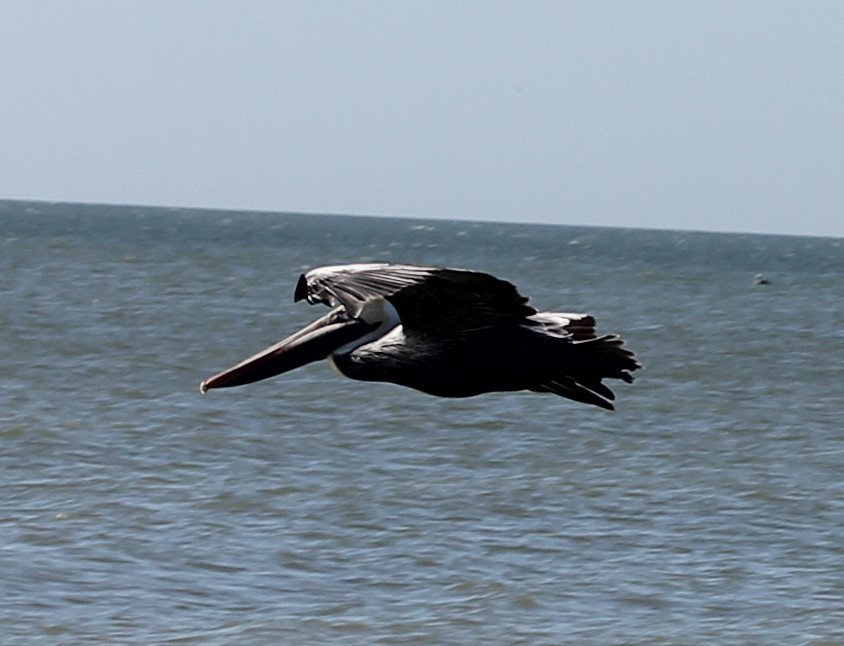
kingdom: Animalia
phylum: Chordata
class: Aves
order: Pelecaniformes
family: Pelecanidae
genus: Pelecanus
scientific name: Pelecanus occidentalis
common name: Brown pelican
